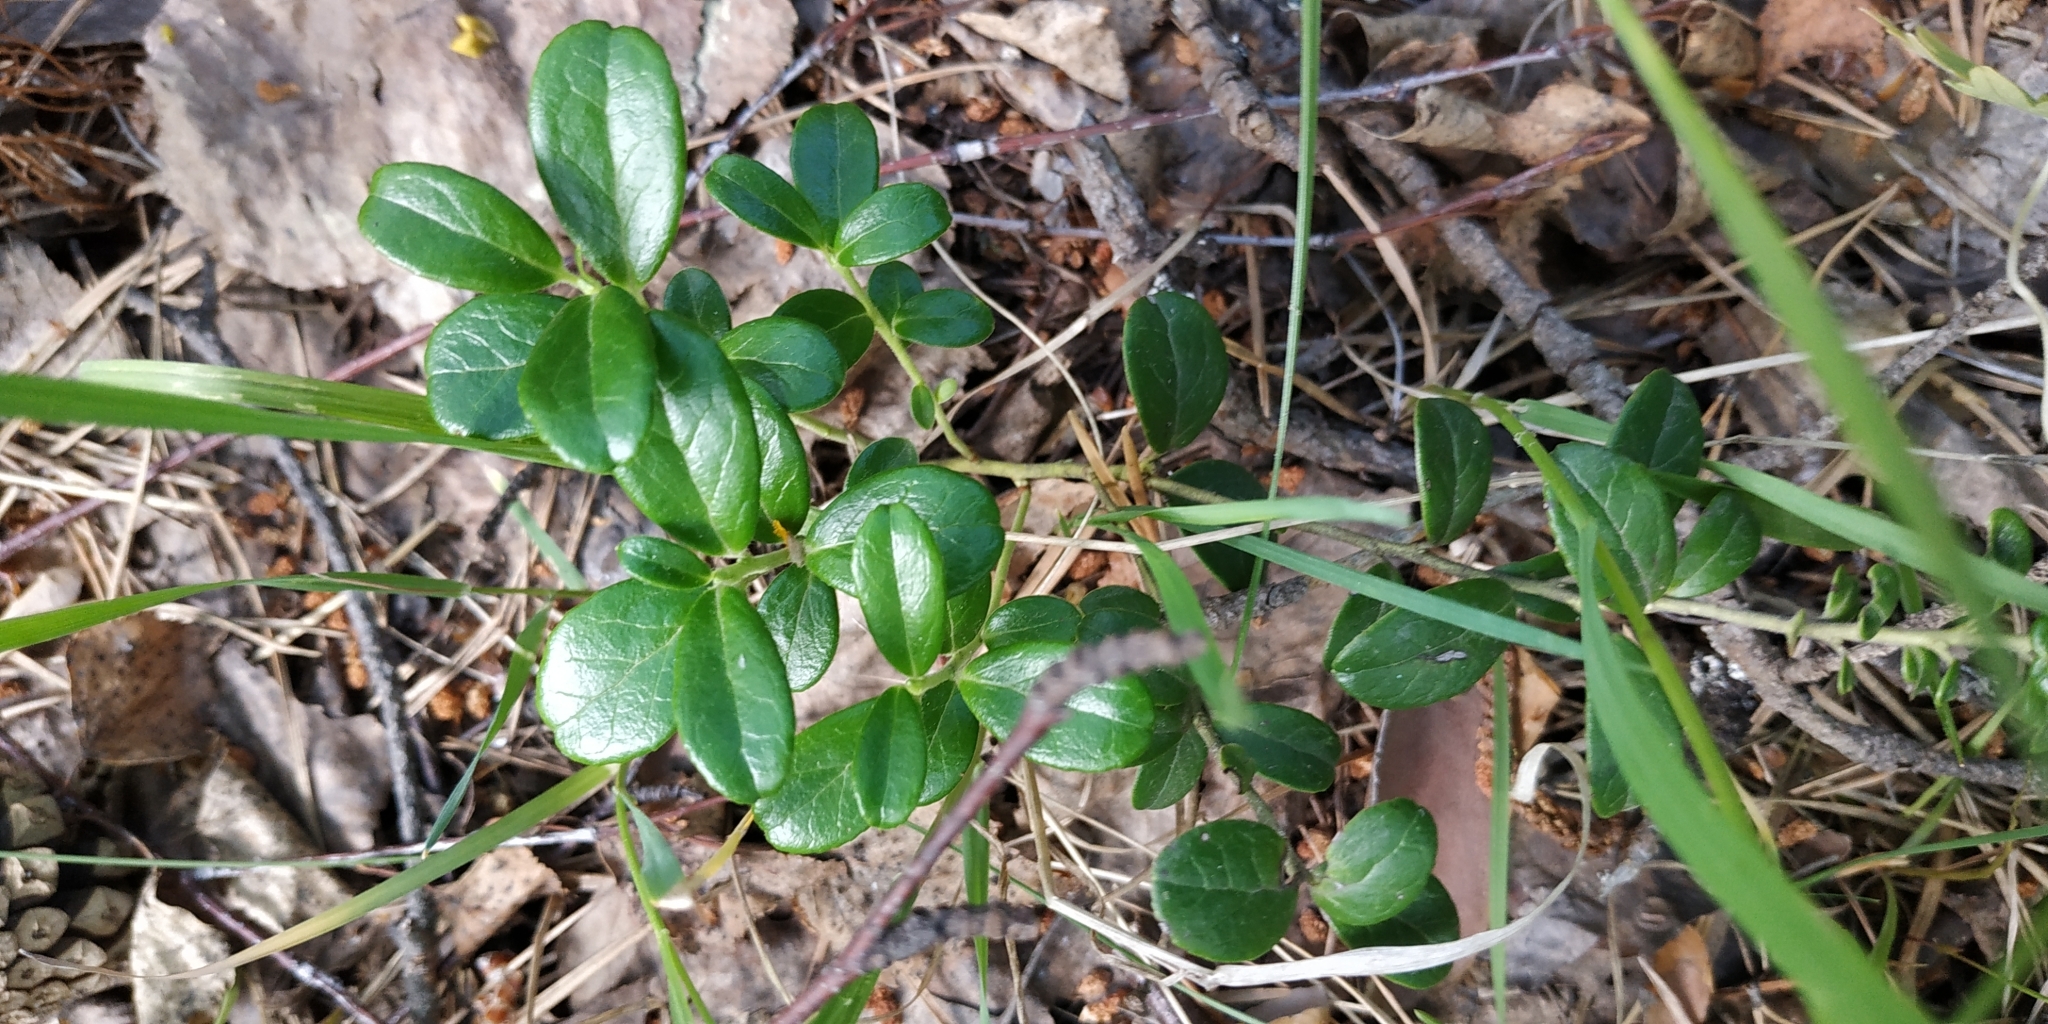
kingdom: Plantae
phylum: Tracheophyta
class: Magnoliopsida
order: Ericales
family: Ericaceae
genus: Vaccinium
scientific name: Vaccinium vitis-idaea
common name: Cowberry
